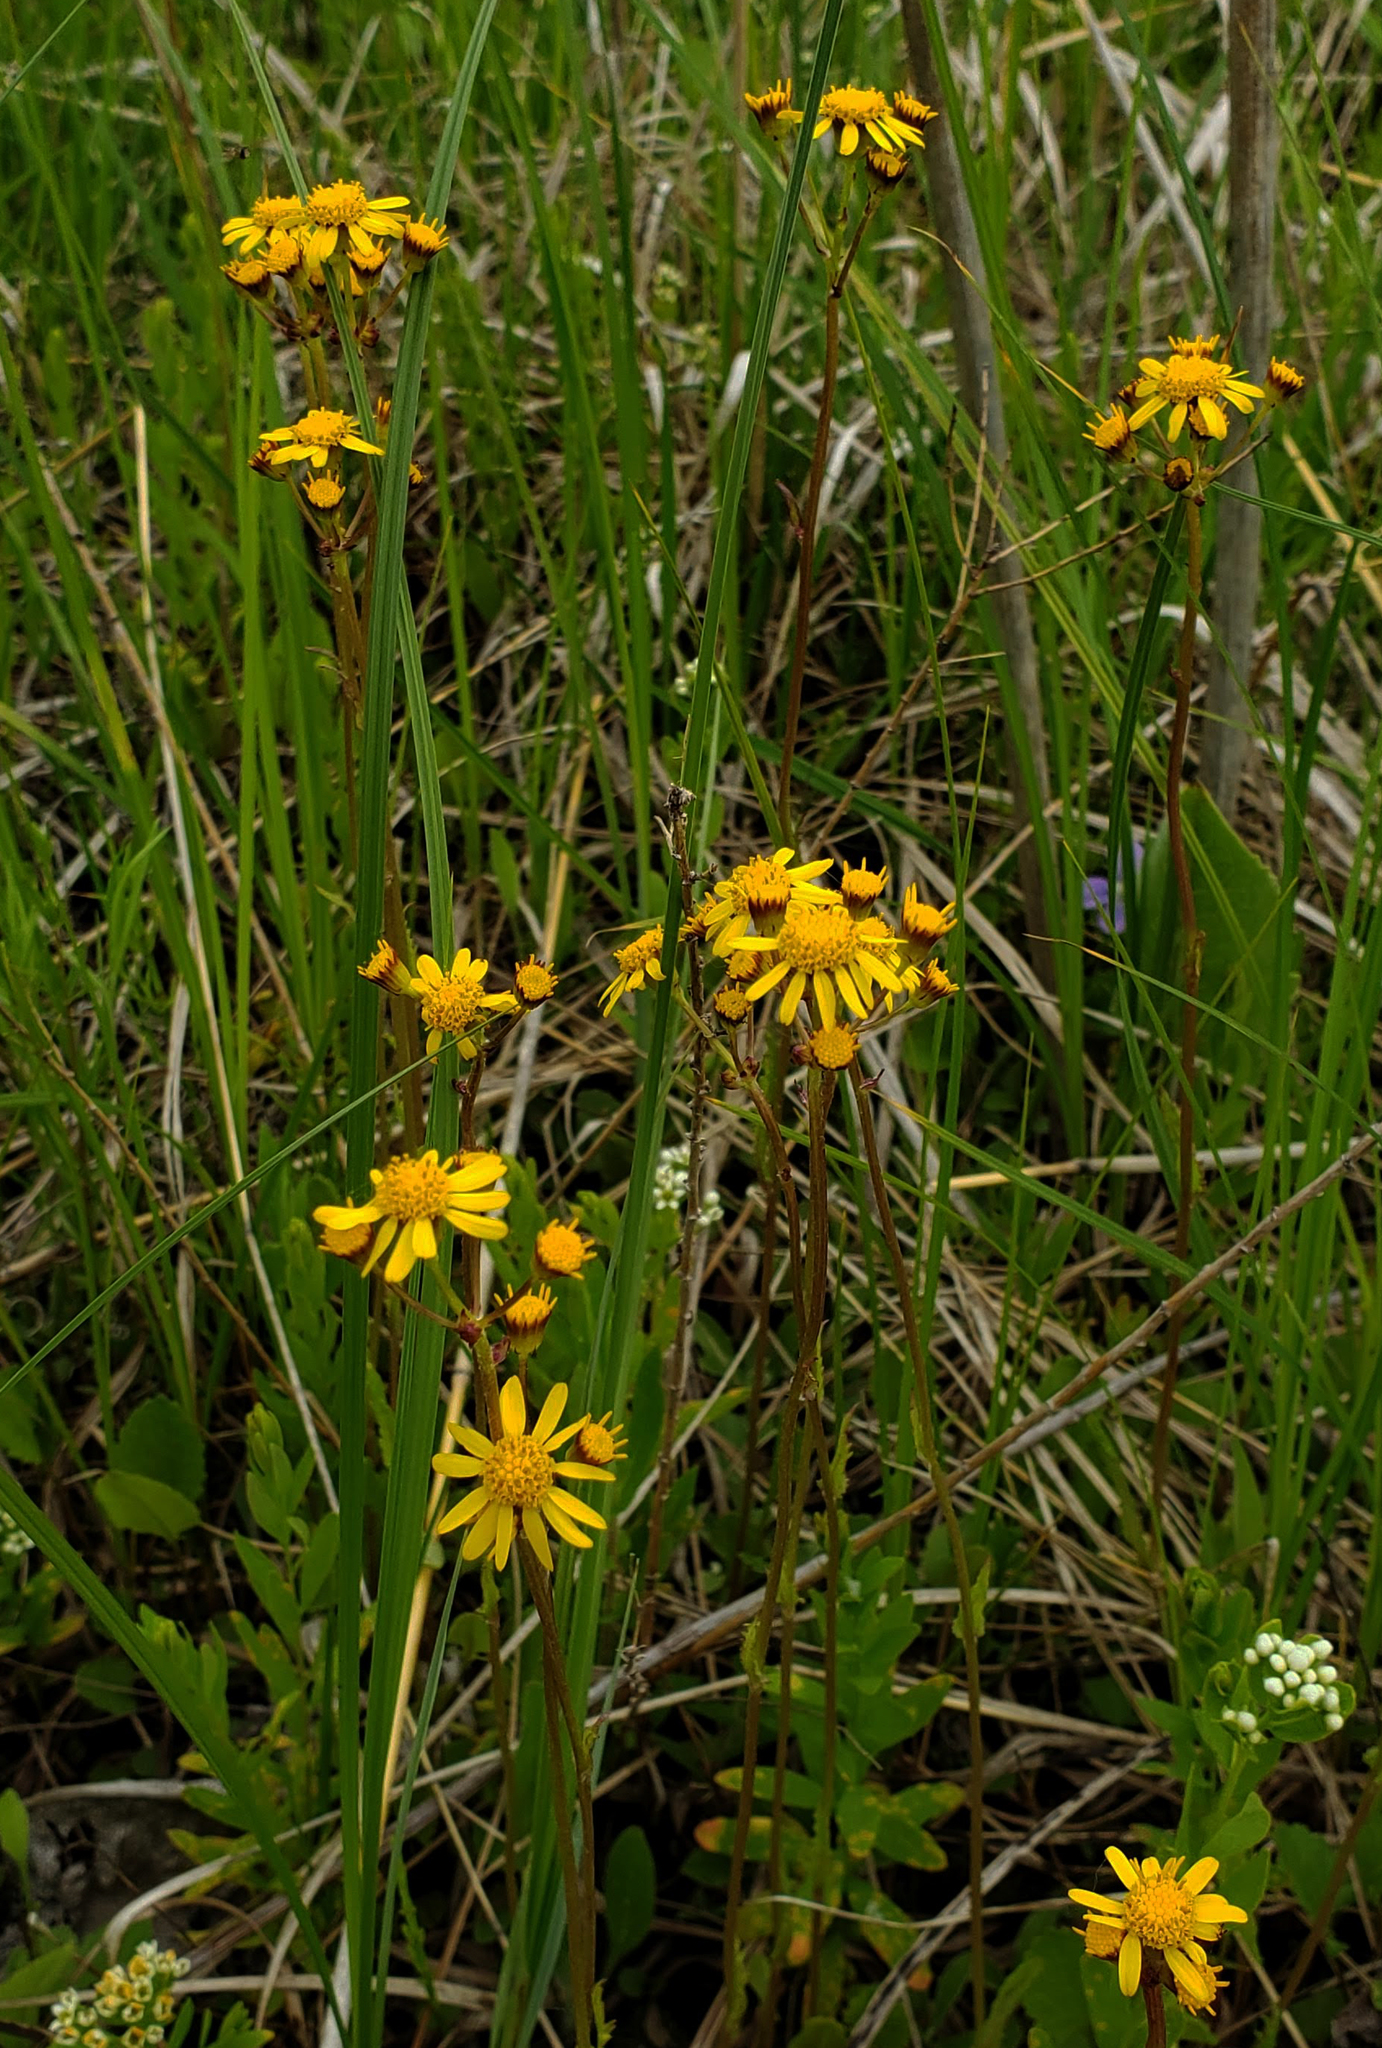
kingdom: Plantae
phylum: Tracheophyta
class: Magnoliopsida
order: Asterales
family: Asteraceae
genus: Packera
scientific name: Packera pseudaurea
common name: False-gold groundsel
